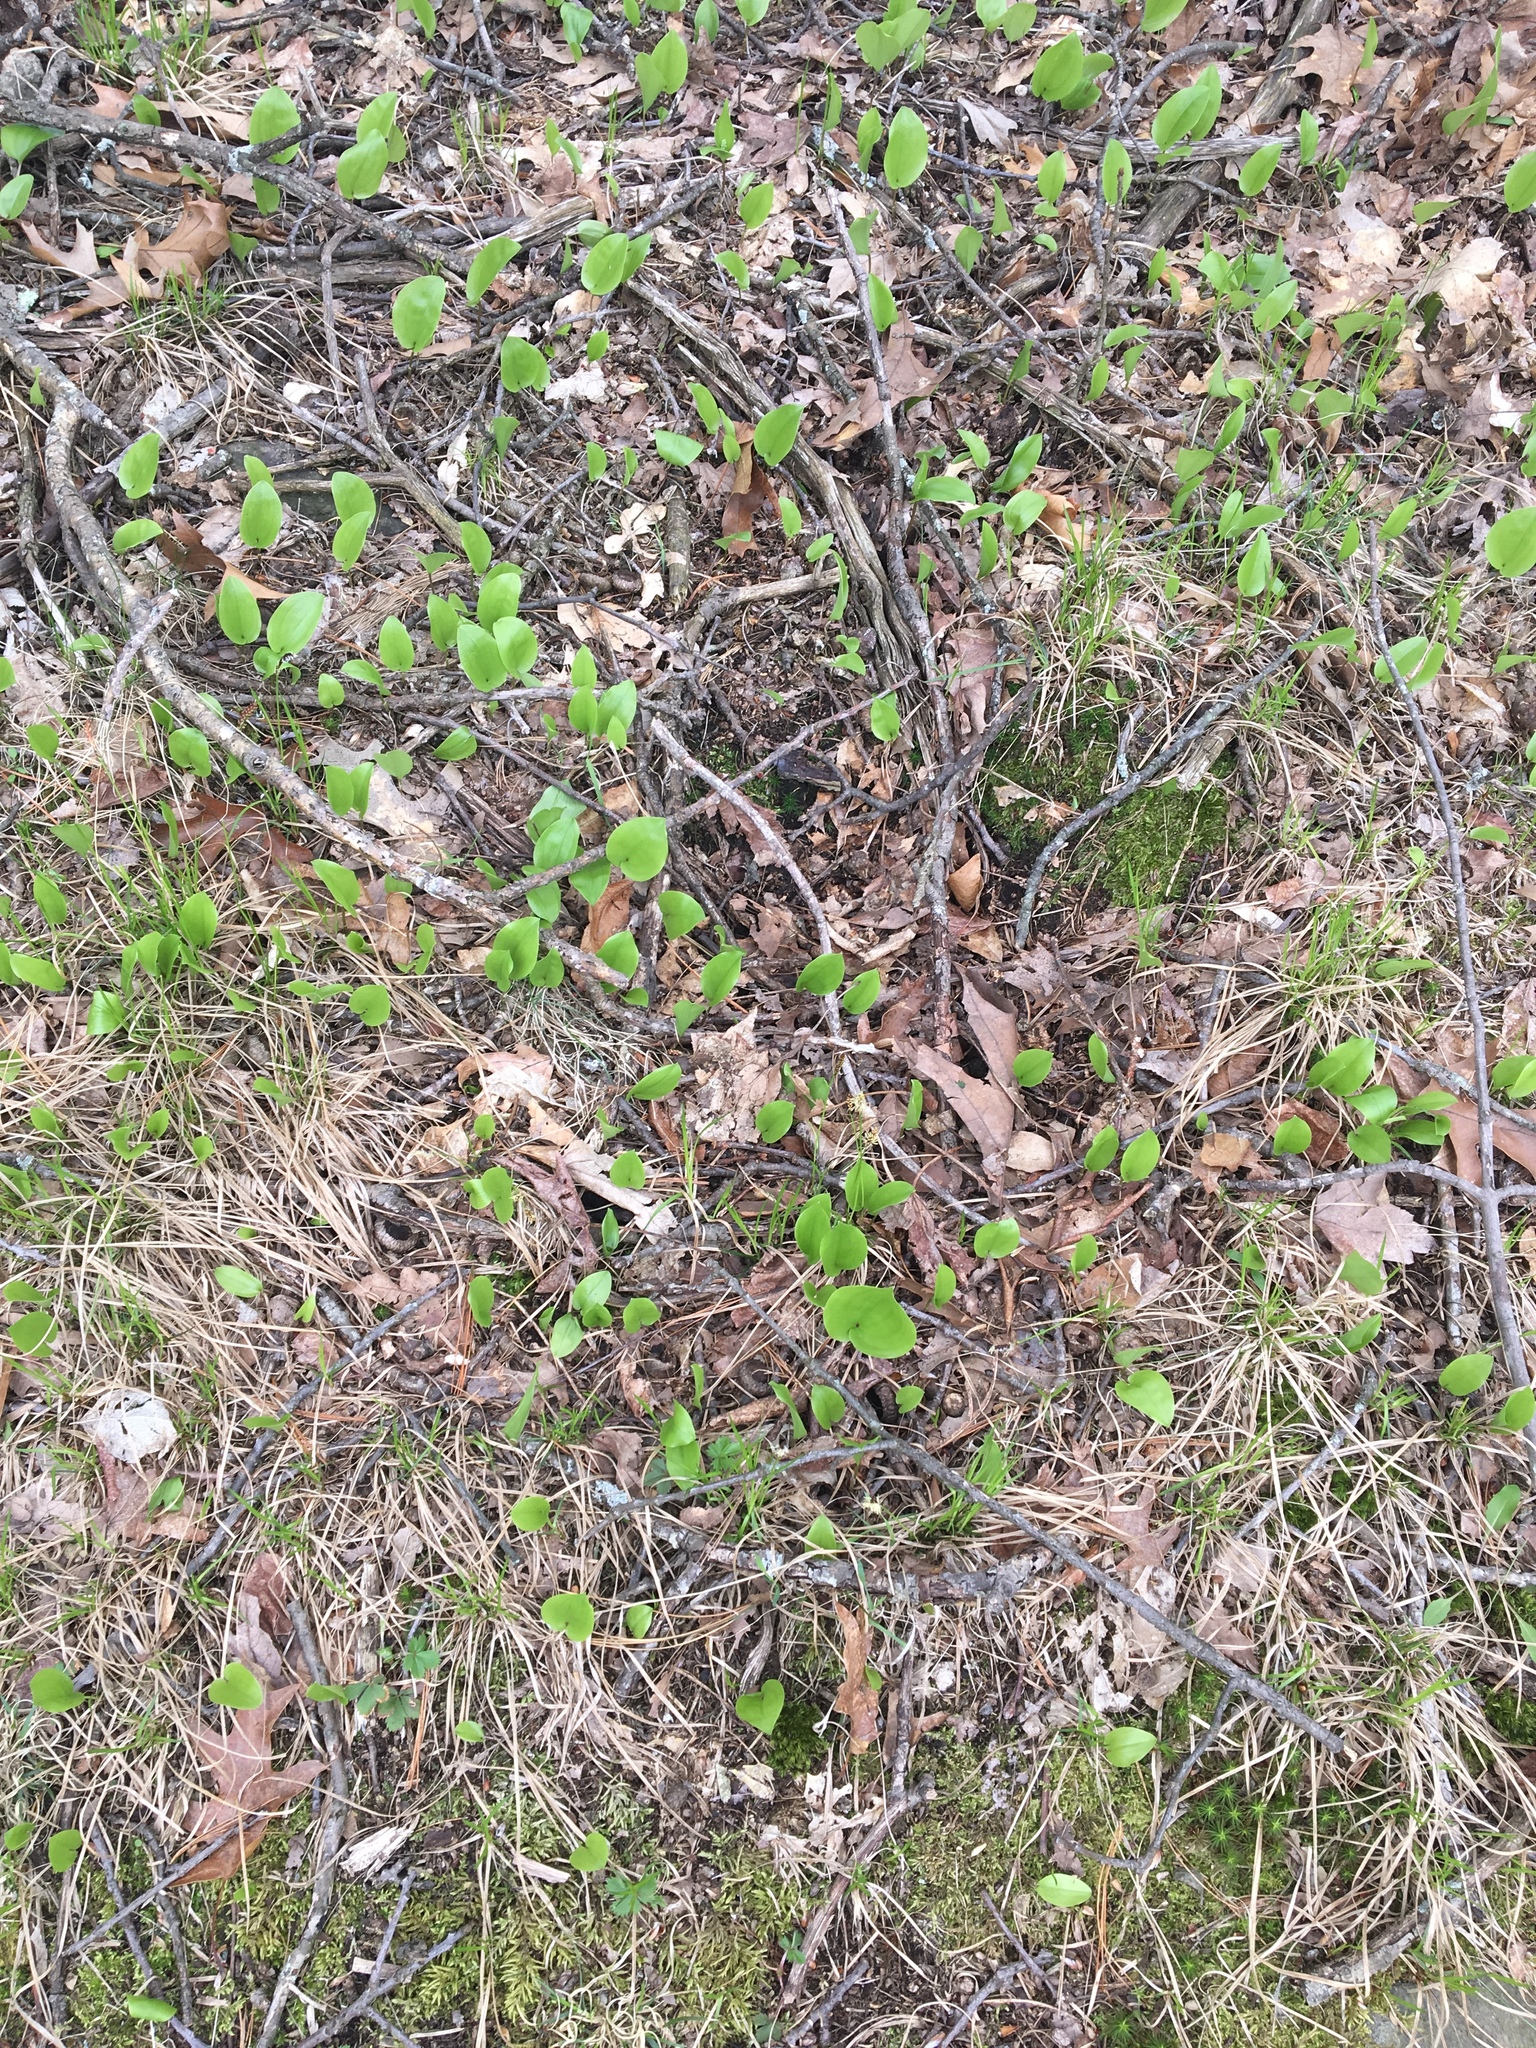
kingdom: Plantae
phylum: Tracheophyta
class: Liliopsida
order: Asparagales
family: Asparagaceae
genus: Maianthemum
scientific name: Maianthemum canadense
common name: False lily-of-the-valley
